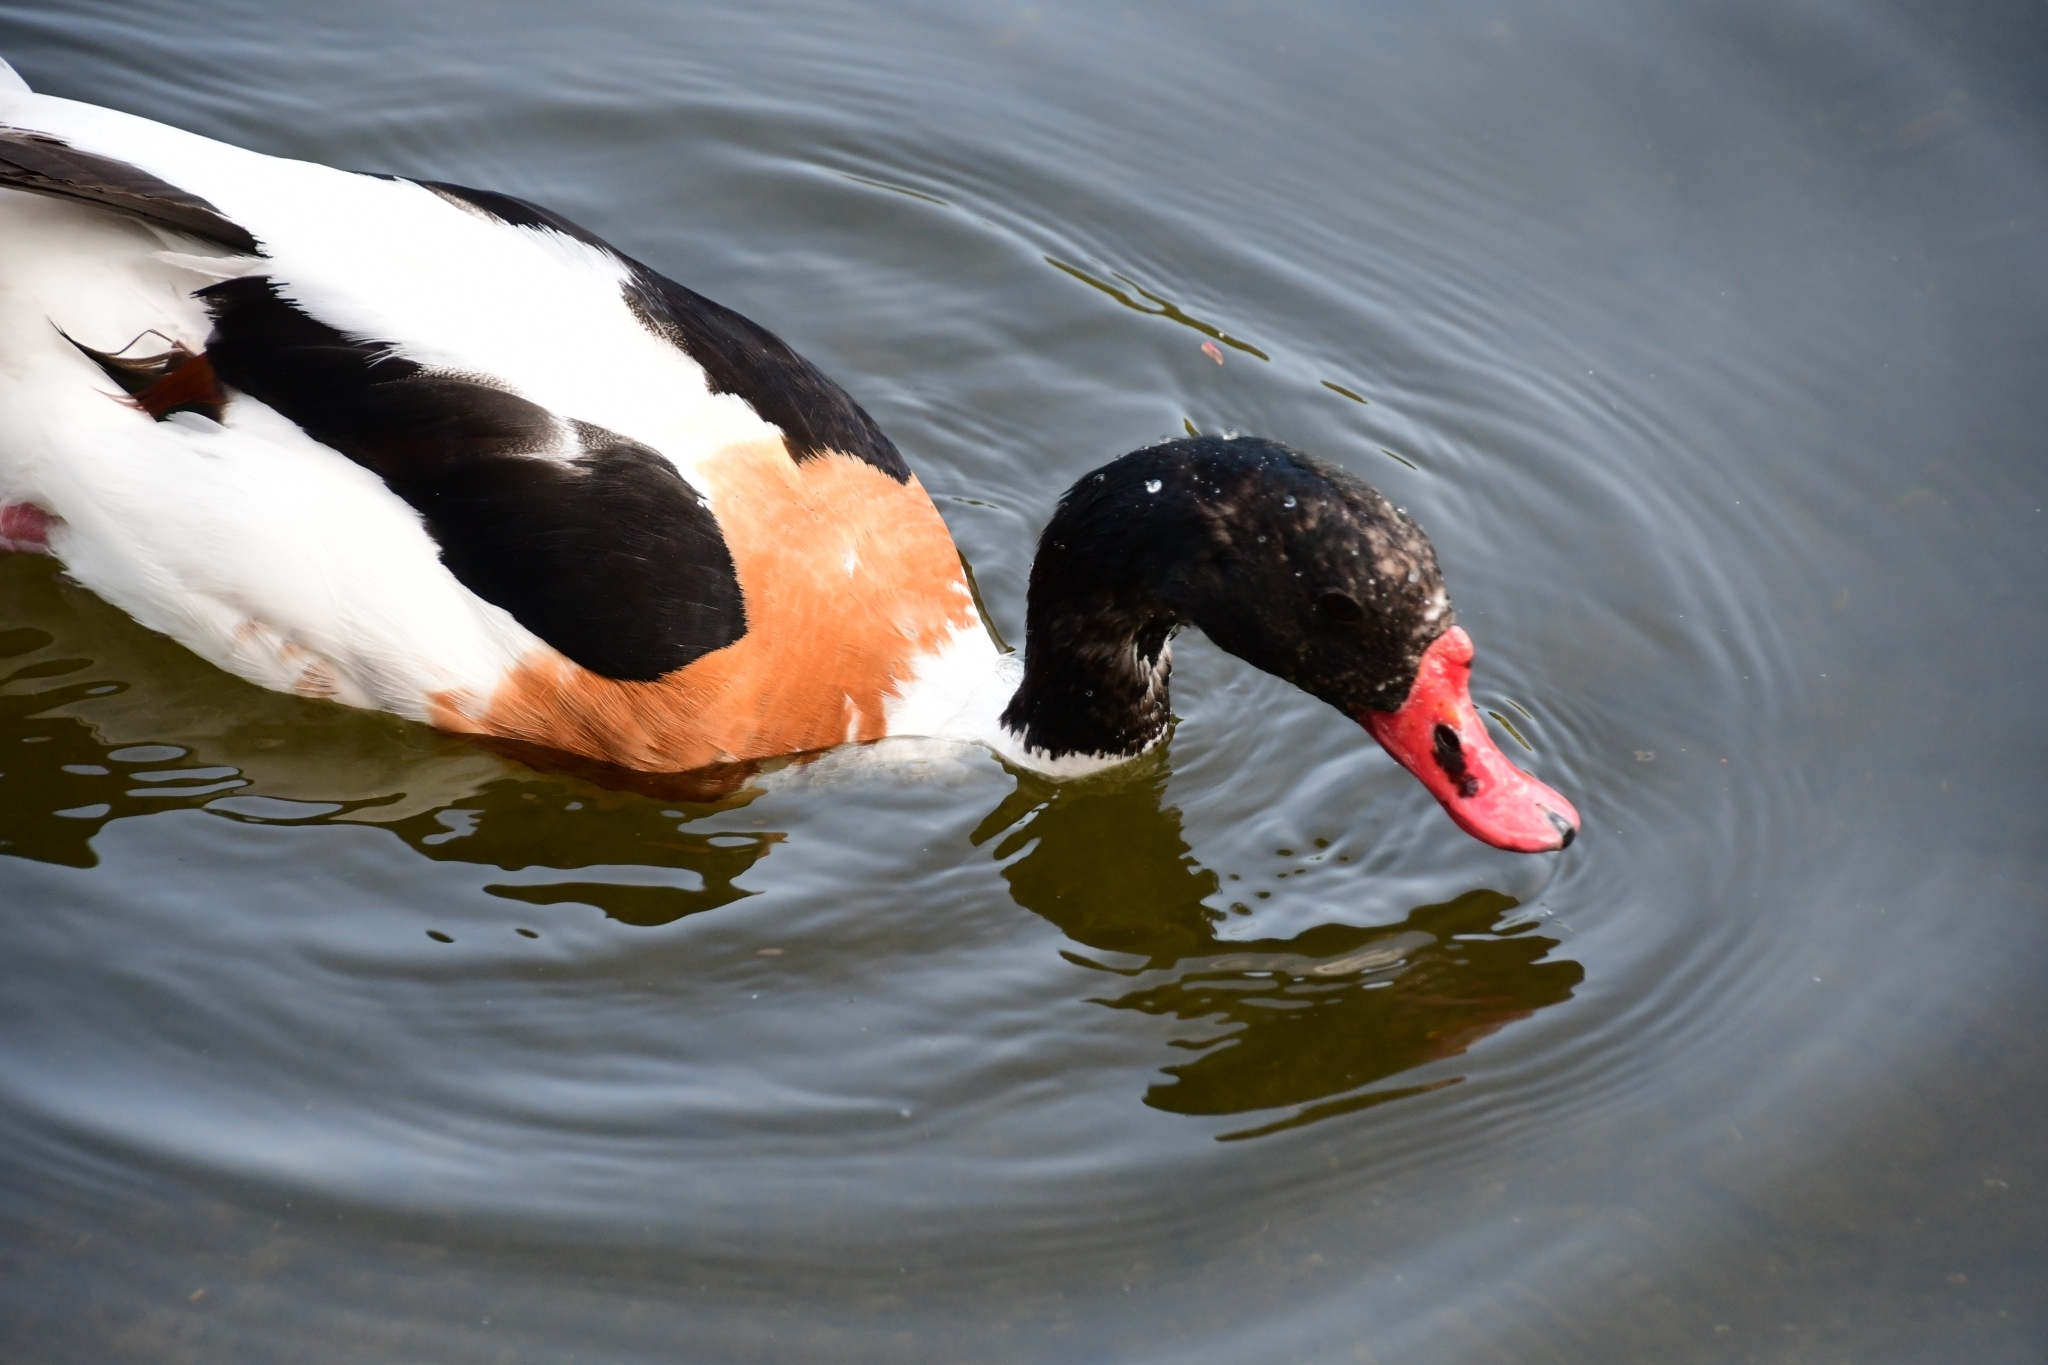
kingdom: Animalia
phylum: Chordata
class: Aves
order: Anseriformes
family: Anatidae
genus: Tadorna
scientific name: Tadorna tadorna
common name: Common shelduck
